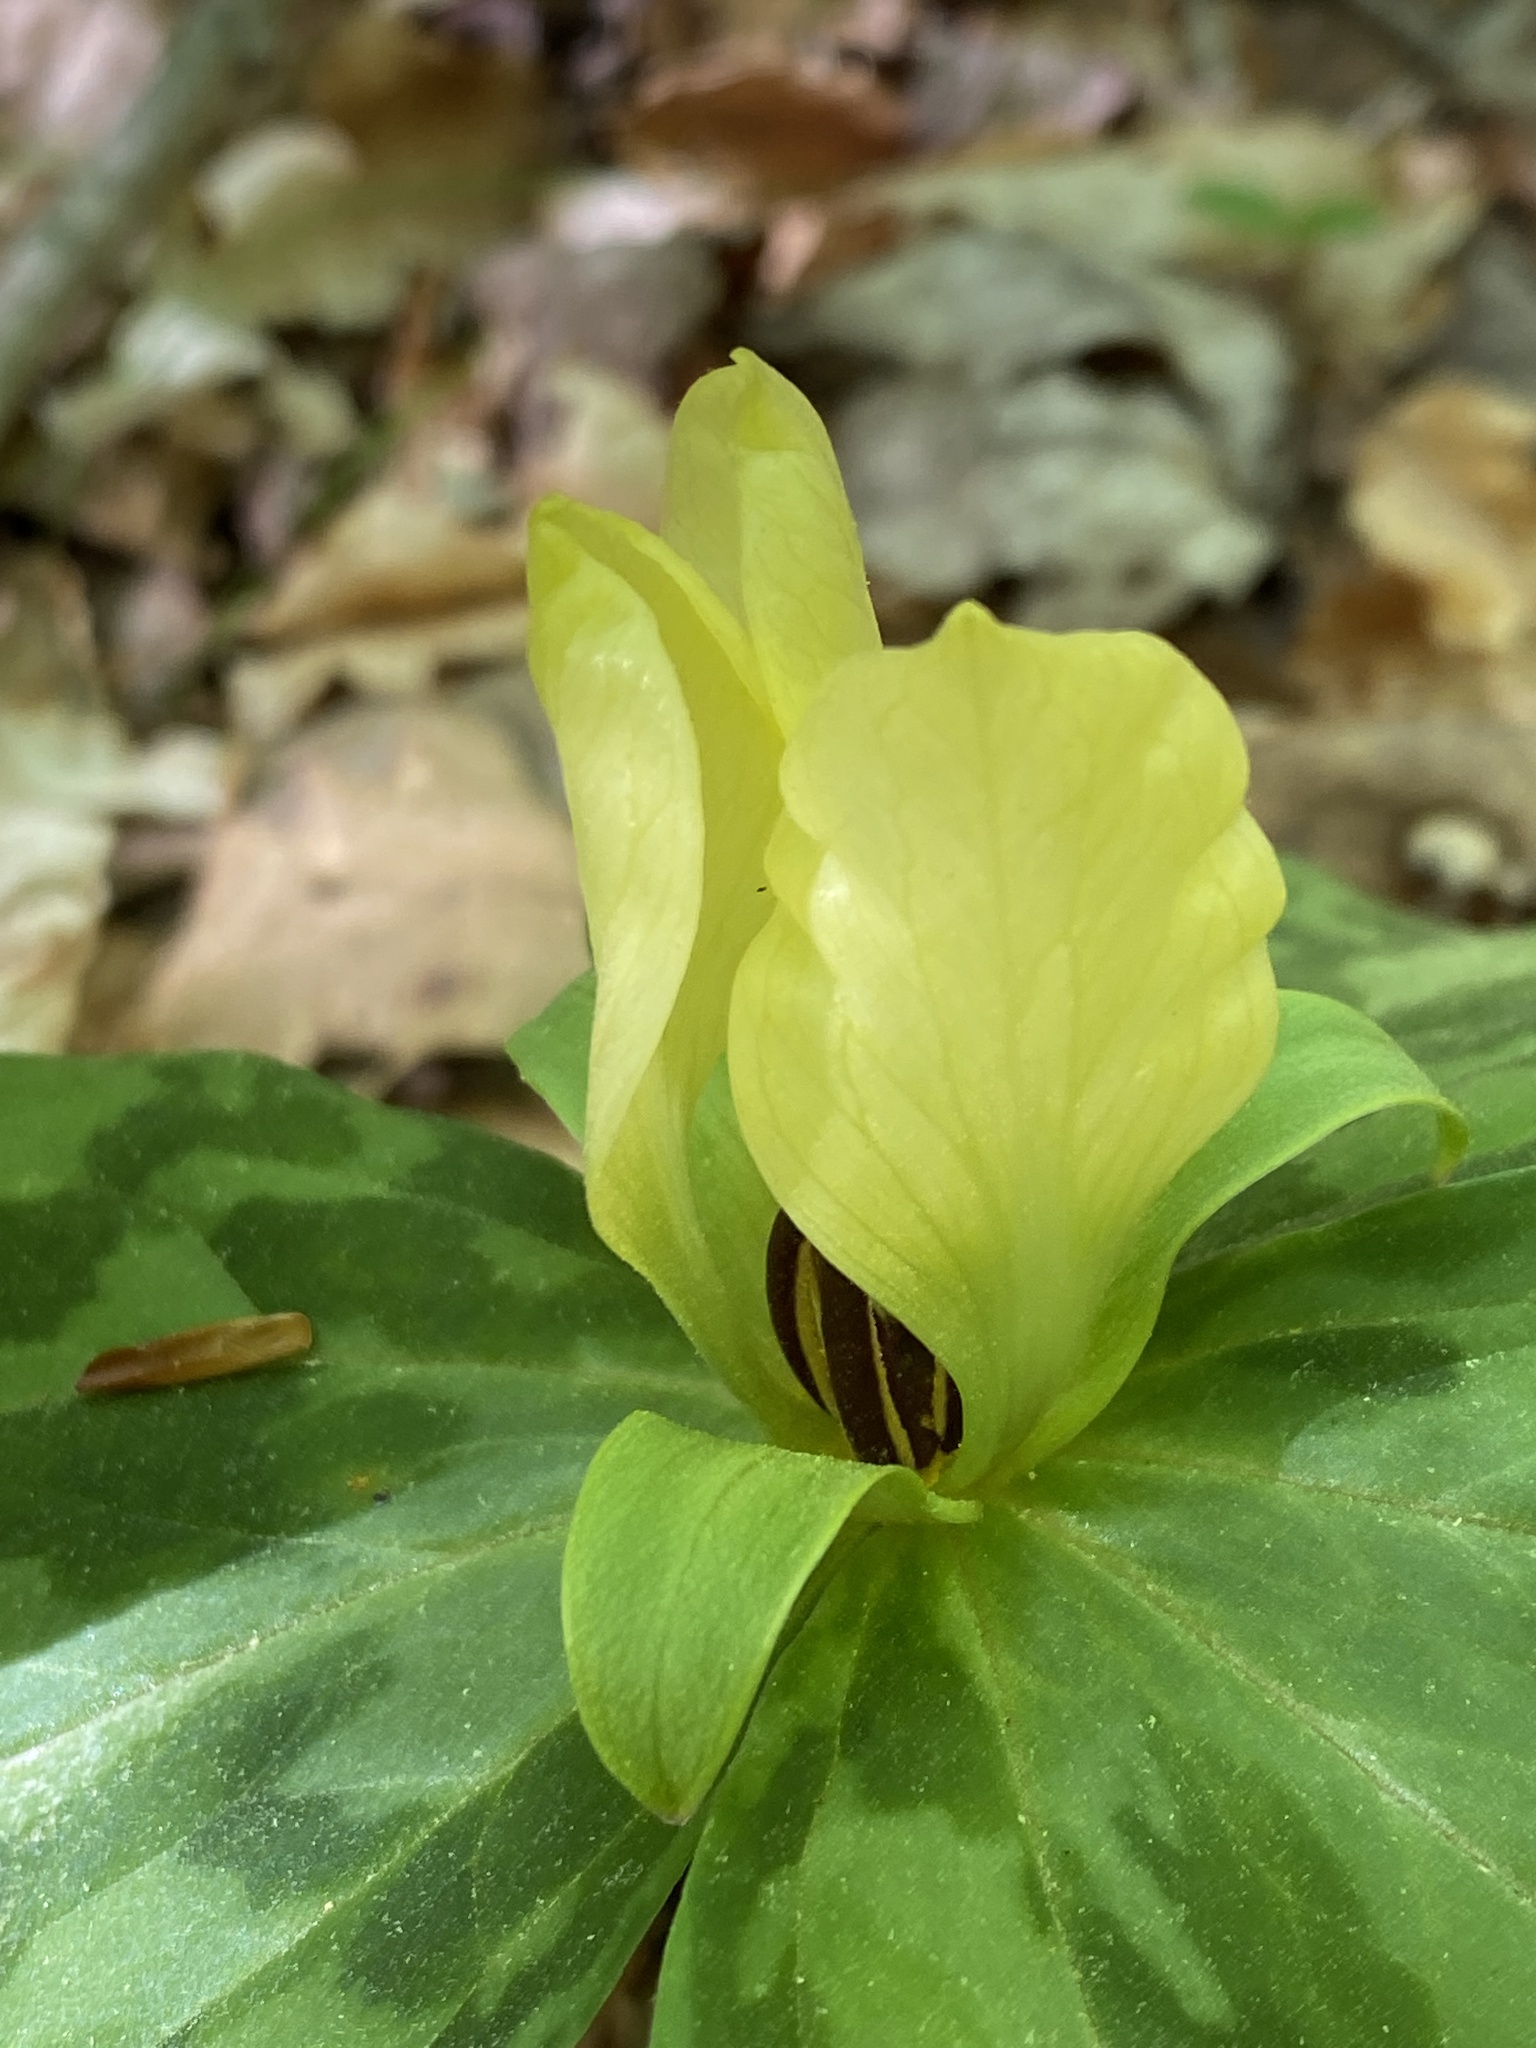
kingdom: Plantae
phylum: Tracheophyta
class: Liliopsida
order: Liliales
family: Melanthiaceae
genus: Trillium
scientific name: Trillium discolor
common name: Faded trillium
